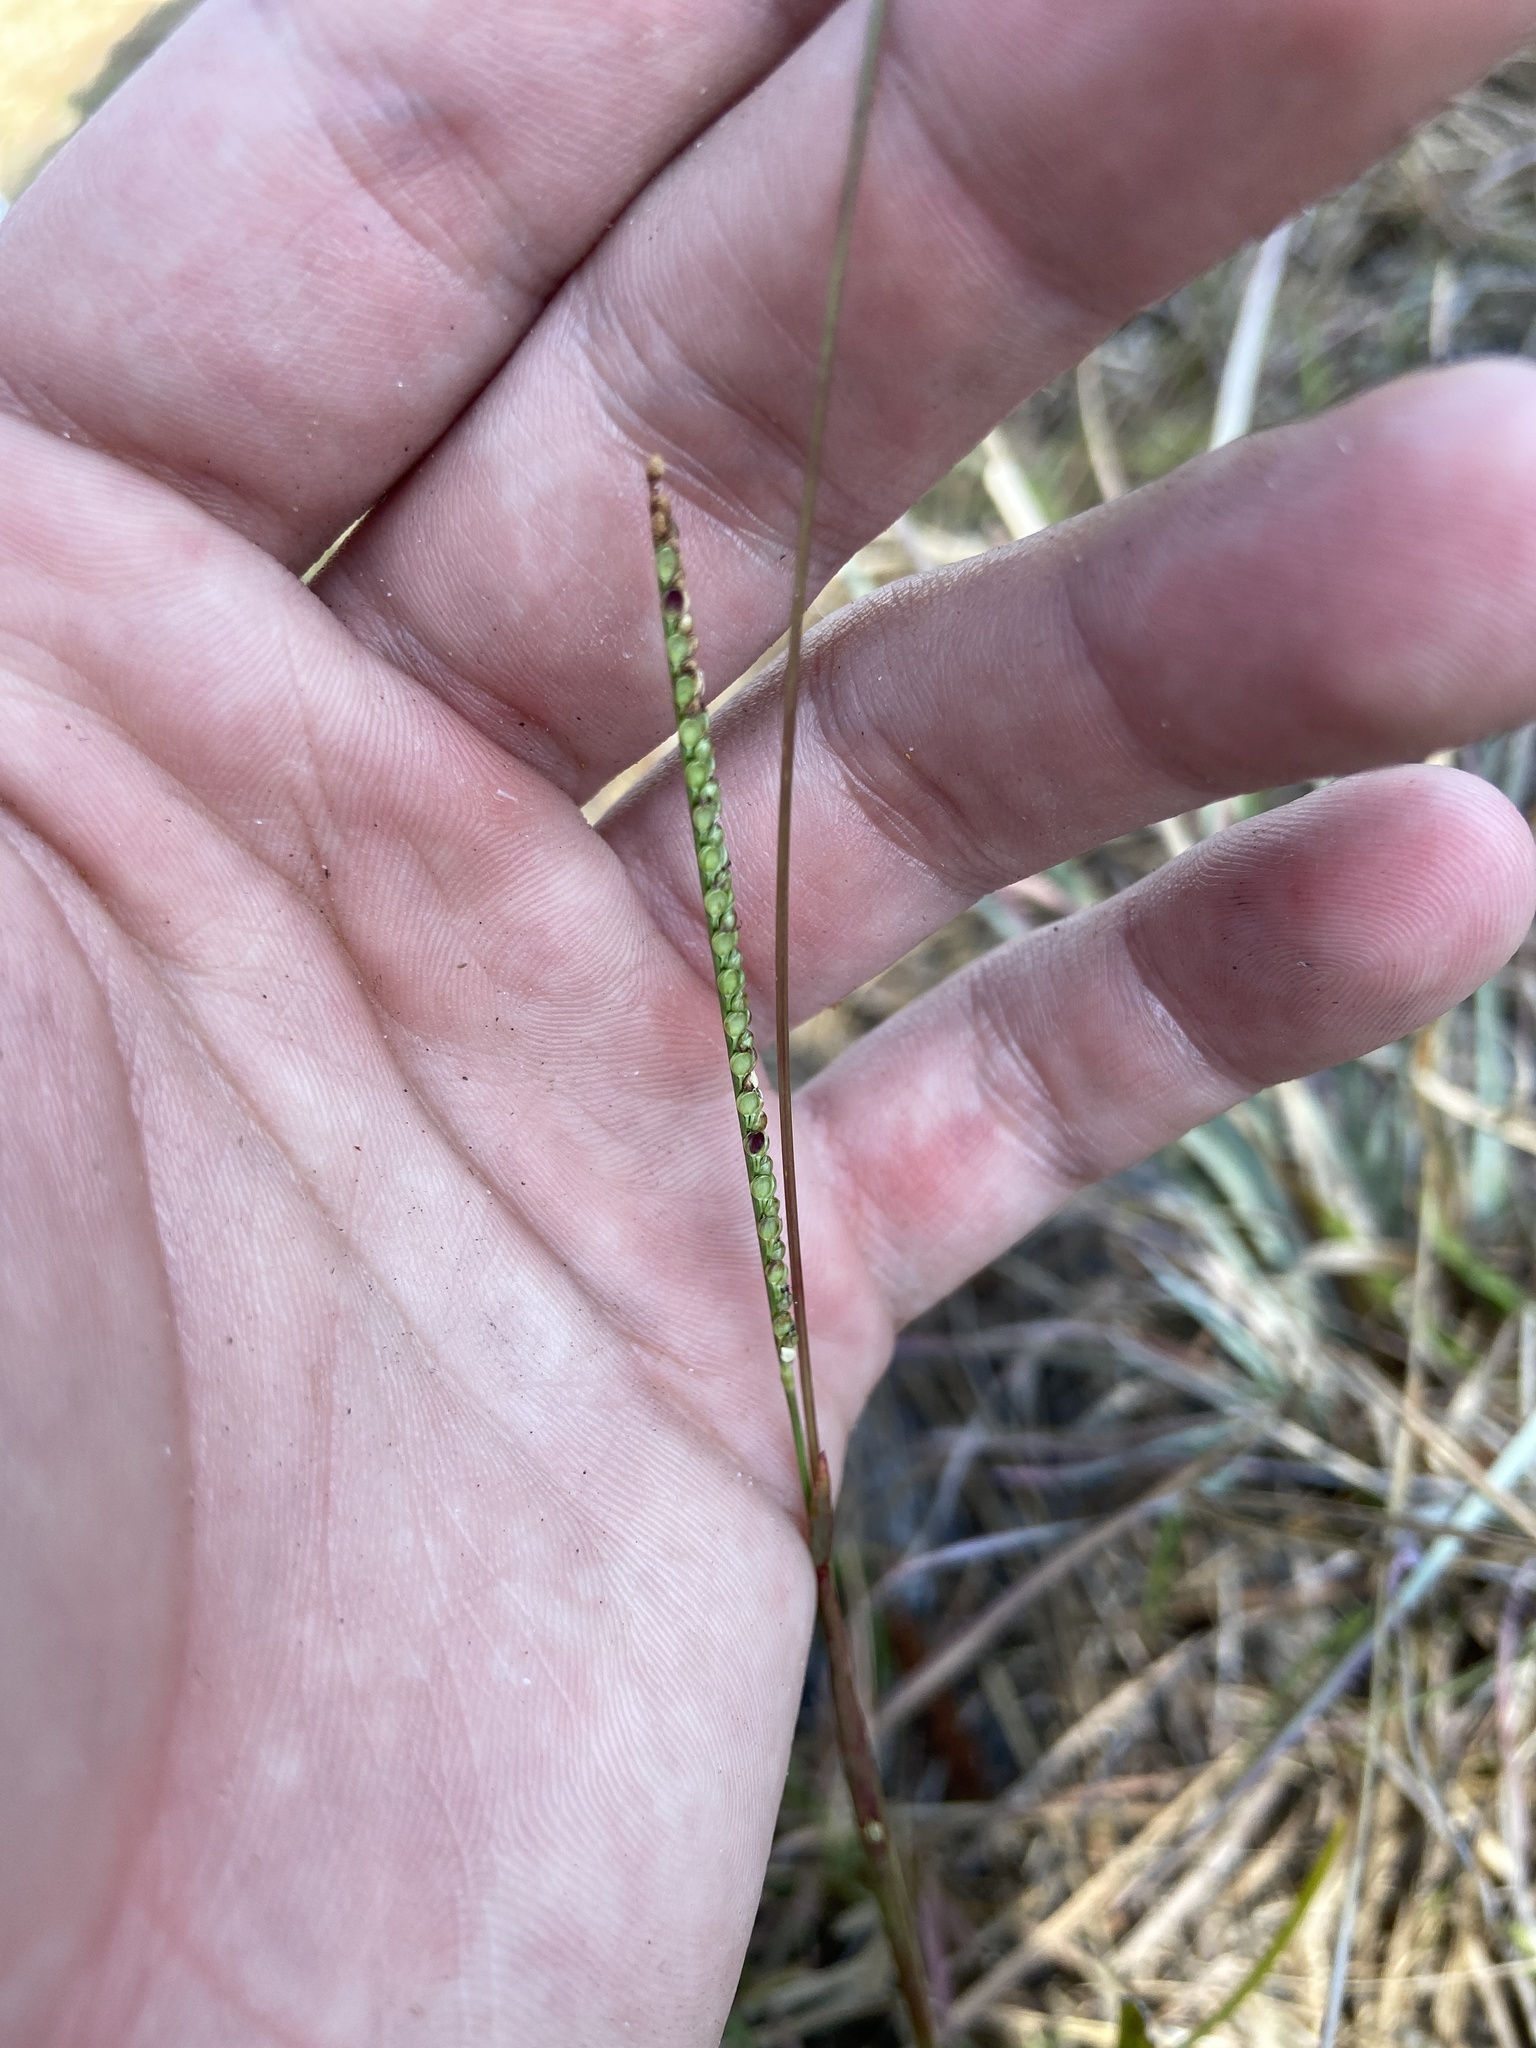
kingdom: Plantae
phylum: Tracheophyta
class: Liliopsida
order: Poales
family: Poaceae
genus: Paspalum
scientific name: Paspalum setaceum
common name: Slender paspalum
